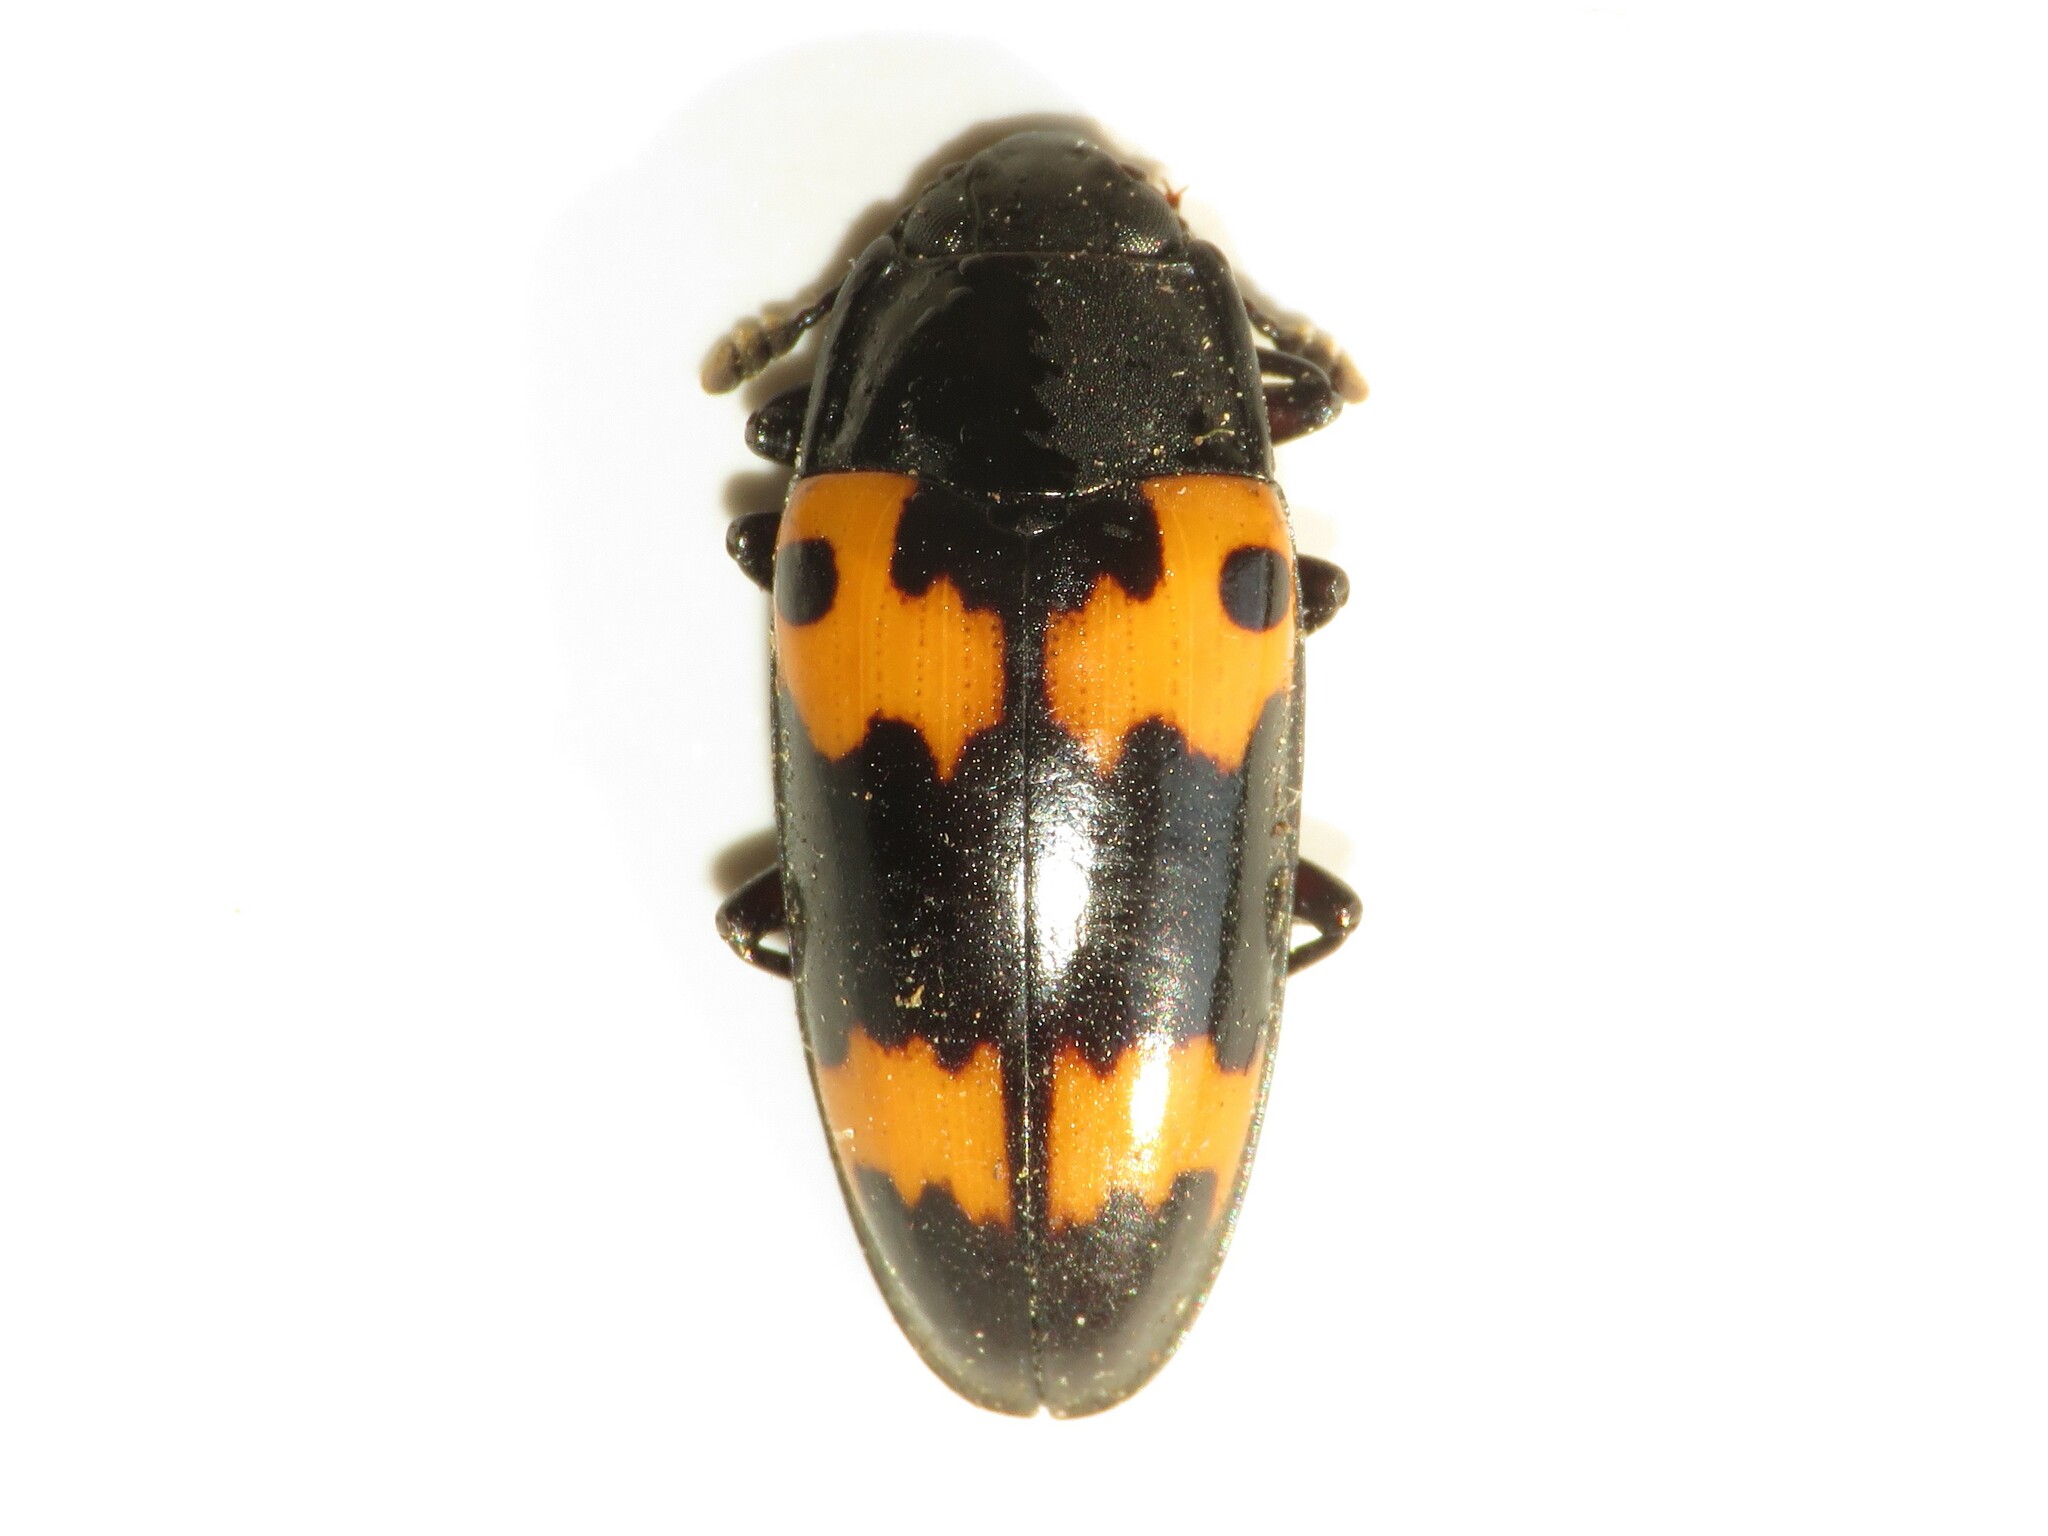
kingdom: Animalia
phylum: Arthropoda
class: Insecta
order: Coleoptera
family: Erotylidae
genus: Megalodacne
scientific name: Megalodacne fasciata
